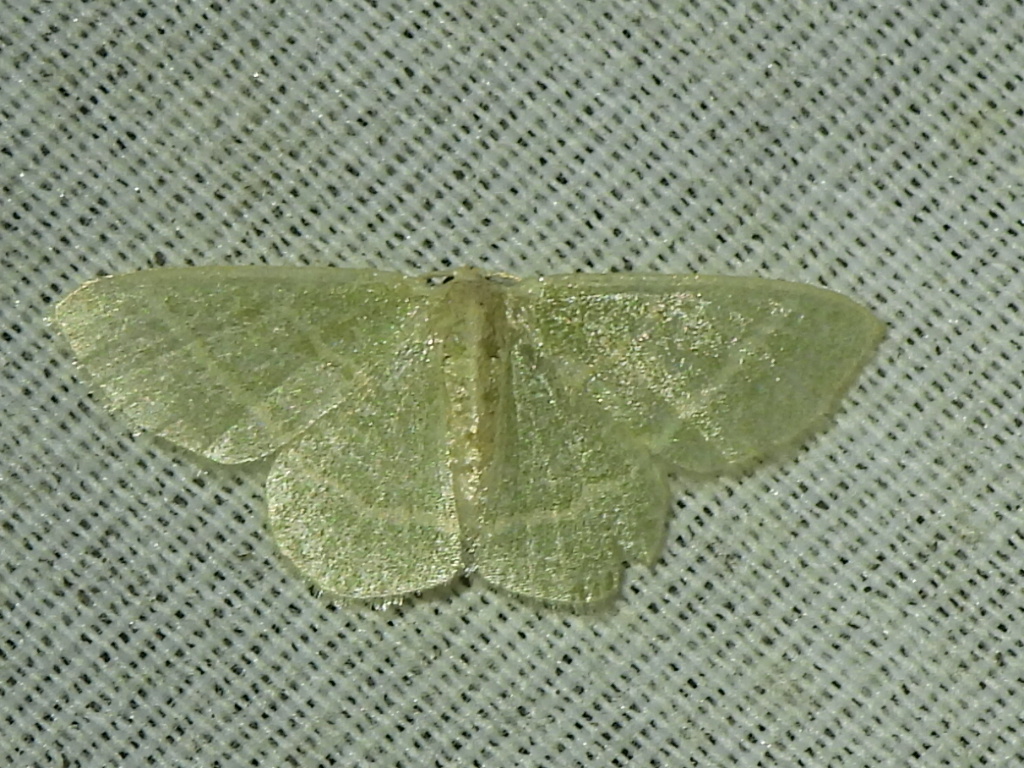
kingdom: Animalia
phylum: Arthropoda
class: Insecta
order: Lepidoptera
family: Geometridae
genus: Chlorochlamys
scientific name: Chlorochlamys chloroleucaria
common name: Blackberry looper
